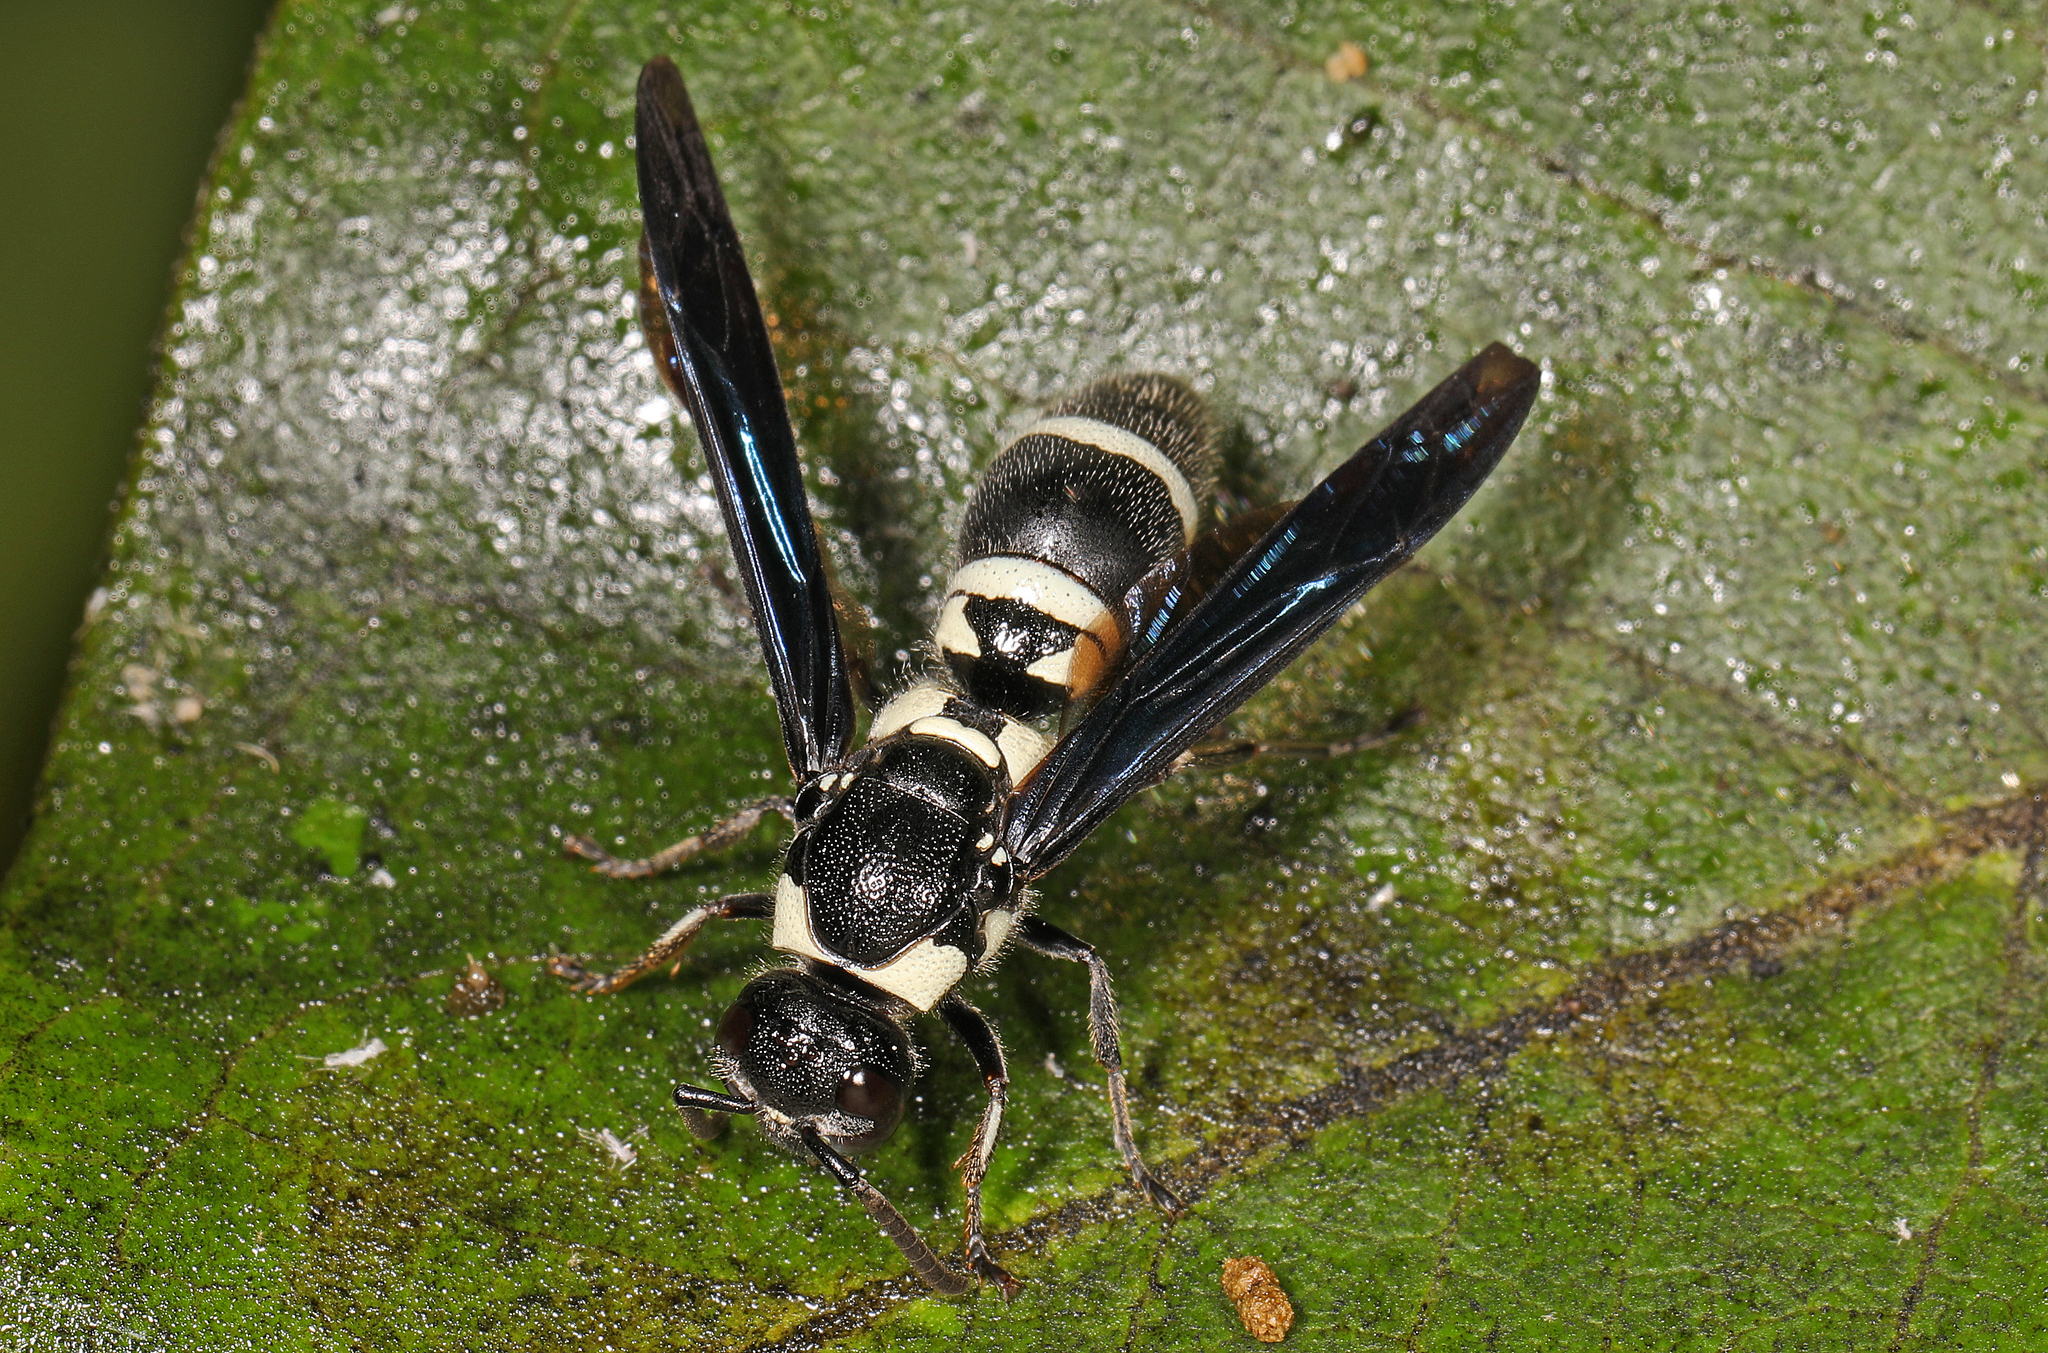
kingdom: Animalia
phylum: Arthropoda
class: Insecta
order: Hymenoptera
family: Eumenidae
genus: Pseudodynerus
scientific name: Pseudodynerus quadrisectus
